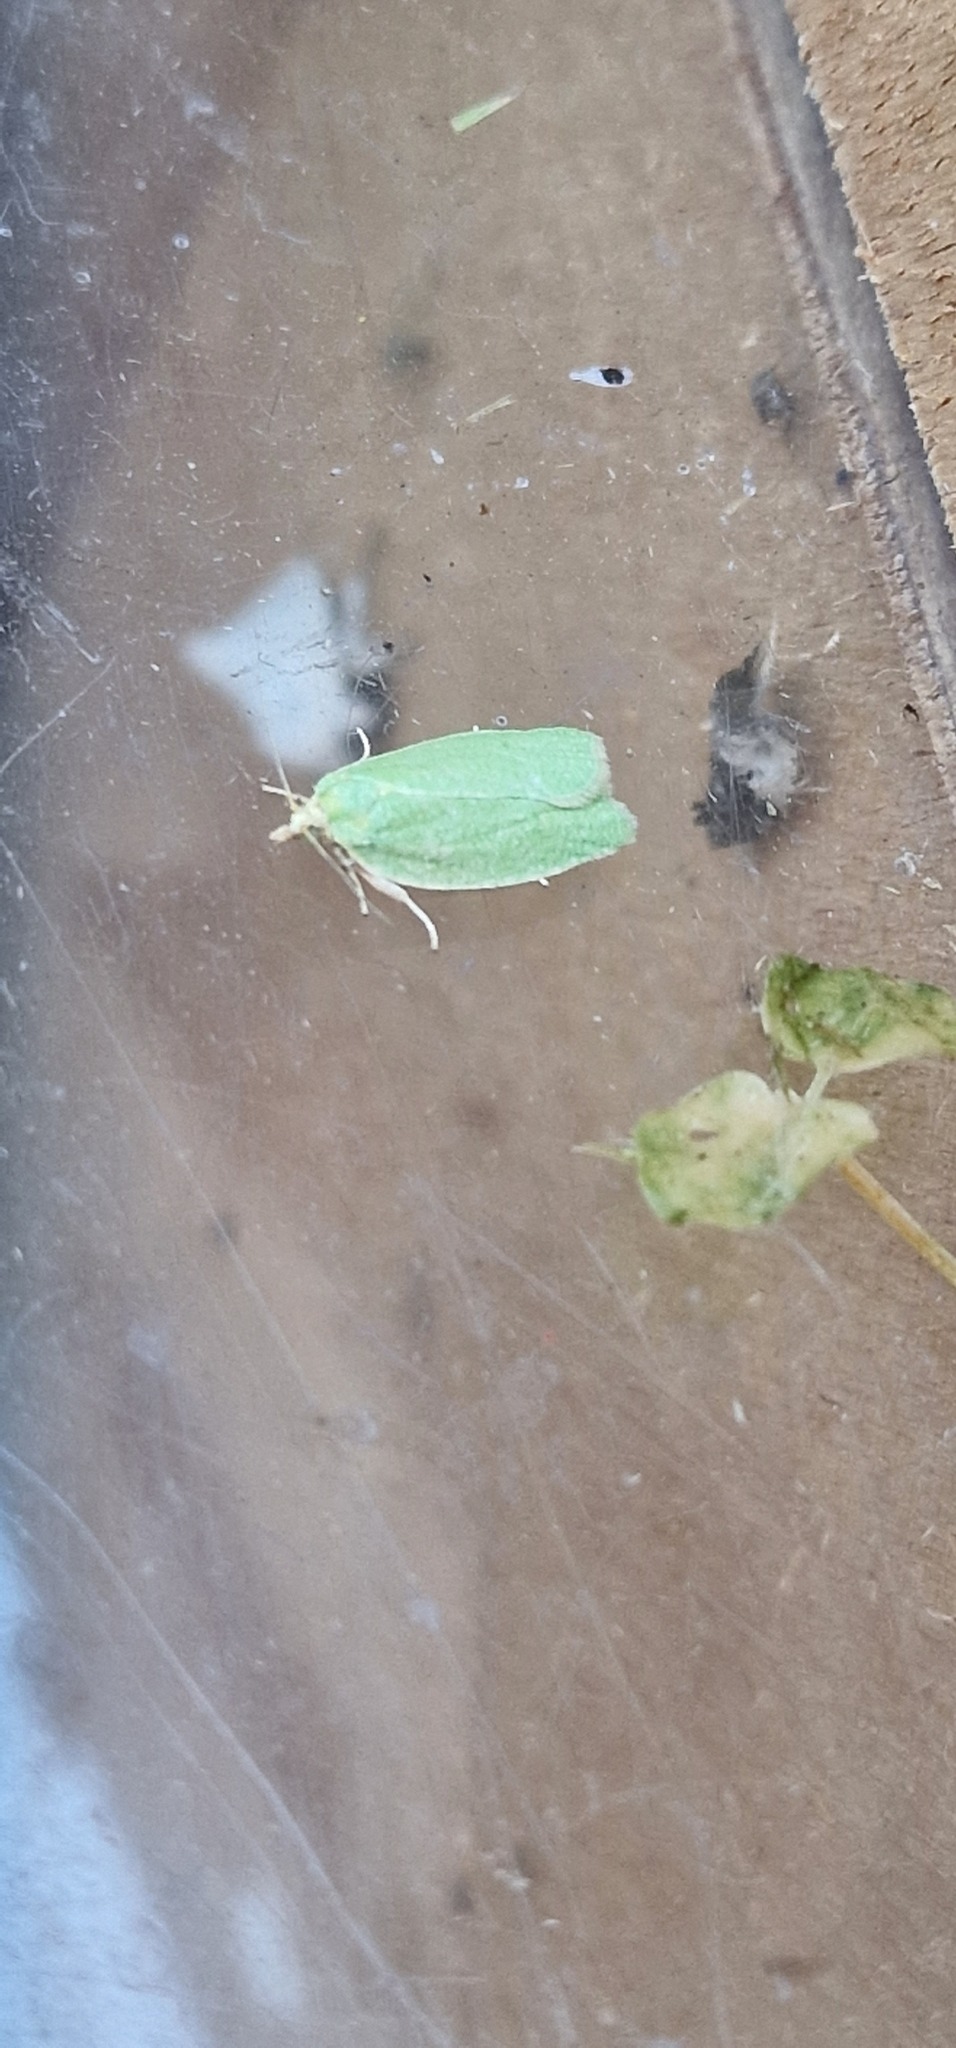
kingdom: Animalia
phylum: Arthropoda
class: Insecta
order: Lepidoptera
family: Tortricidae
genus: Tortrix
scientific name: Tortrix viridana
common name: Green oak tortrix
